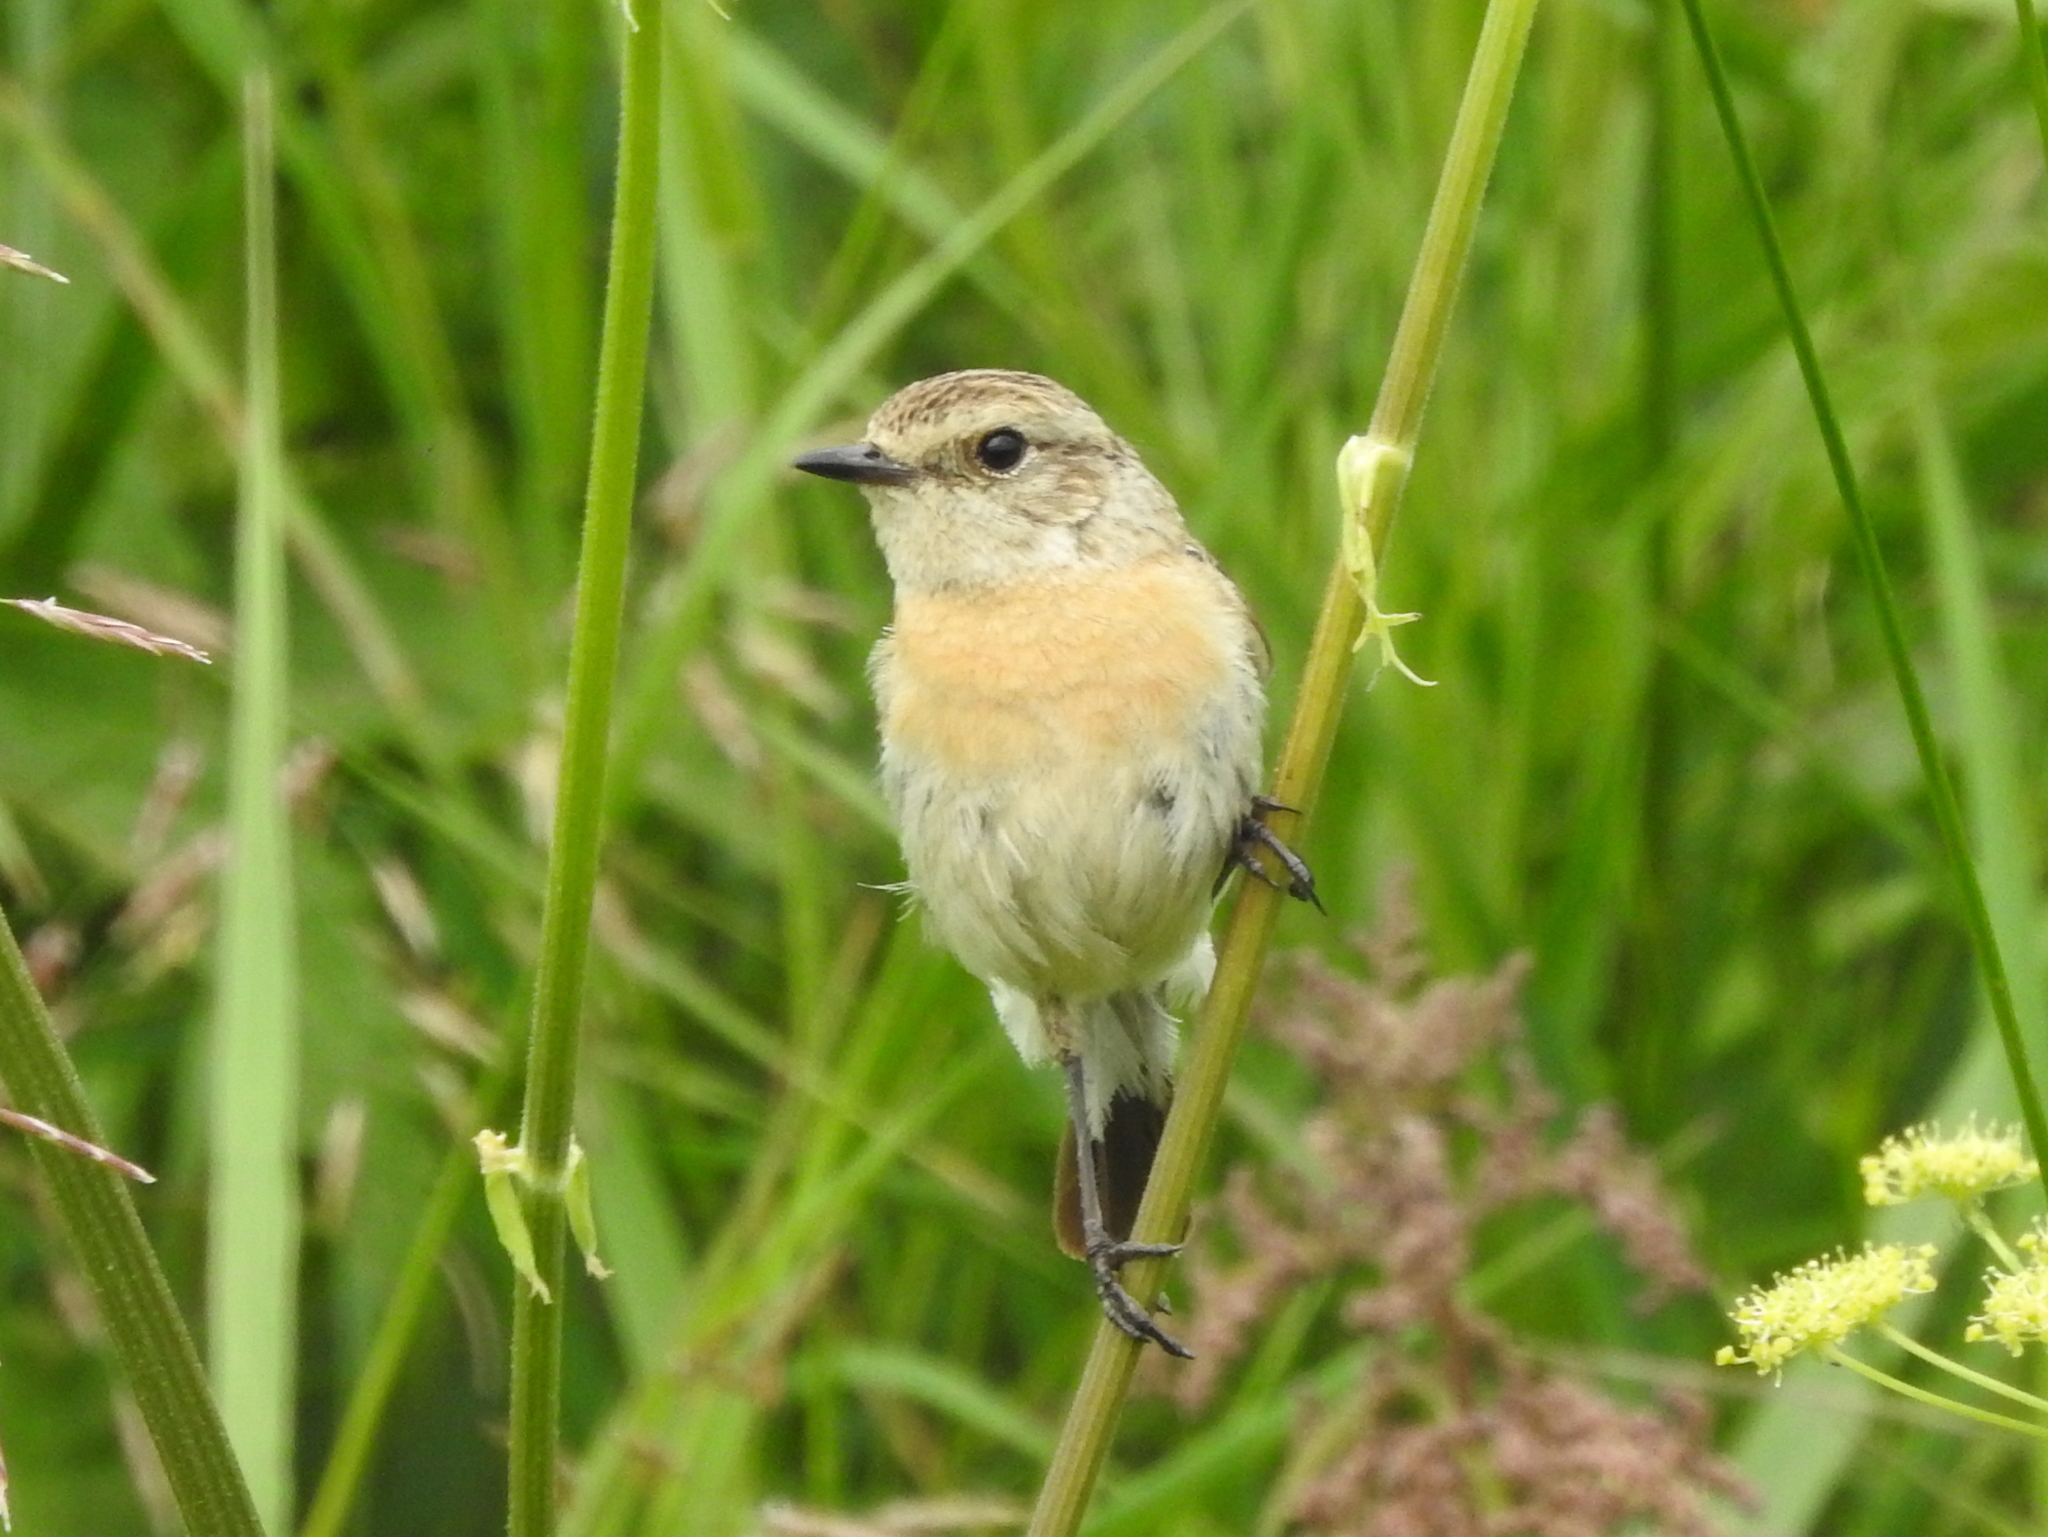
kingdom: Animalia
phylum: Chordata
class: Aves
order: Passeriformes
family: Muscicapidae
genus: Saxicola
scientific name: Saxicola maurus
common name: Siberian stonechat
